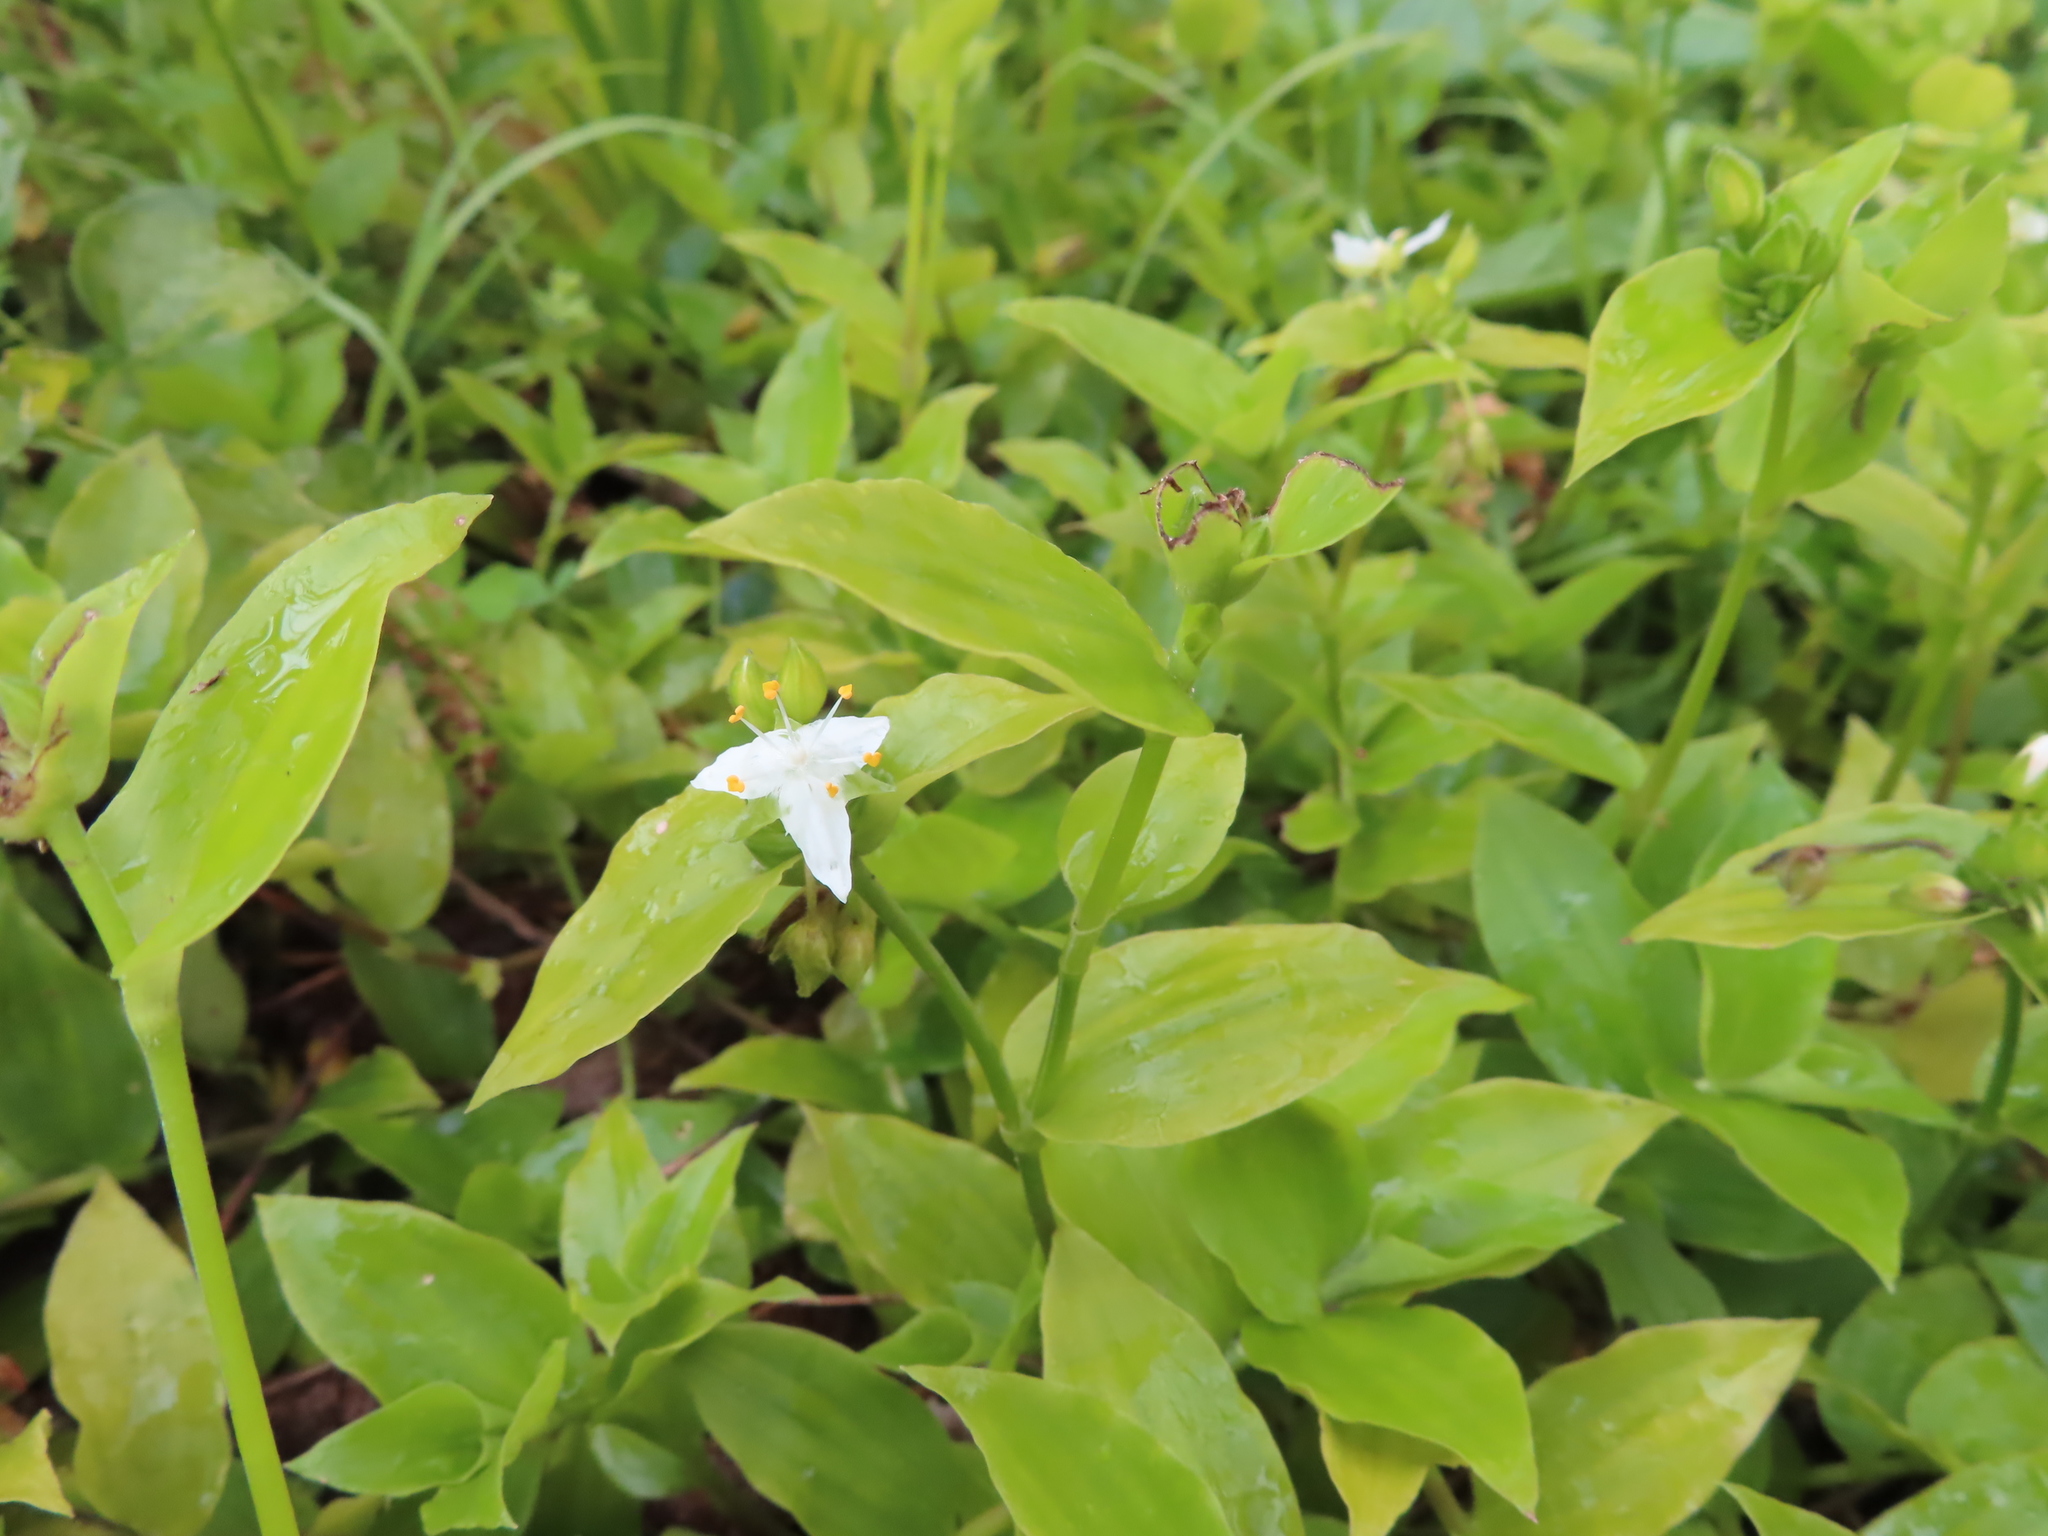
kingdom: Plantae
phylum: Tracheophyta
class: Liliopsida
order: Commelinales
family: Commelinaceae
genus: Tradescantia
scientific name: Tradescantia fluminensis
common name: Wandering-jew
